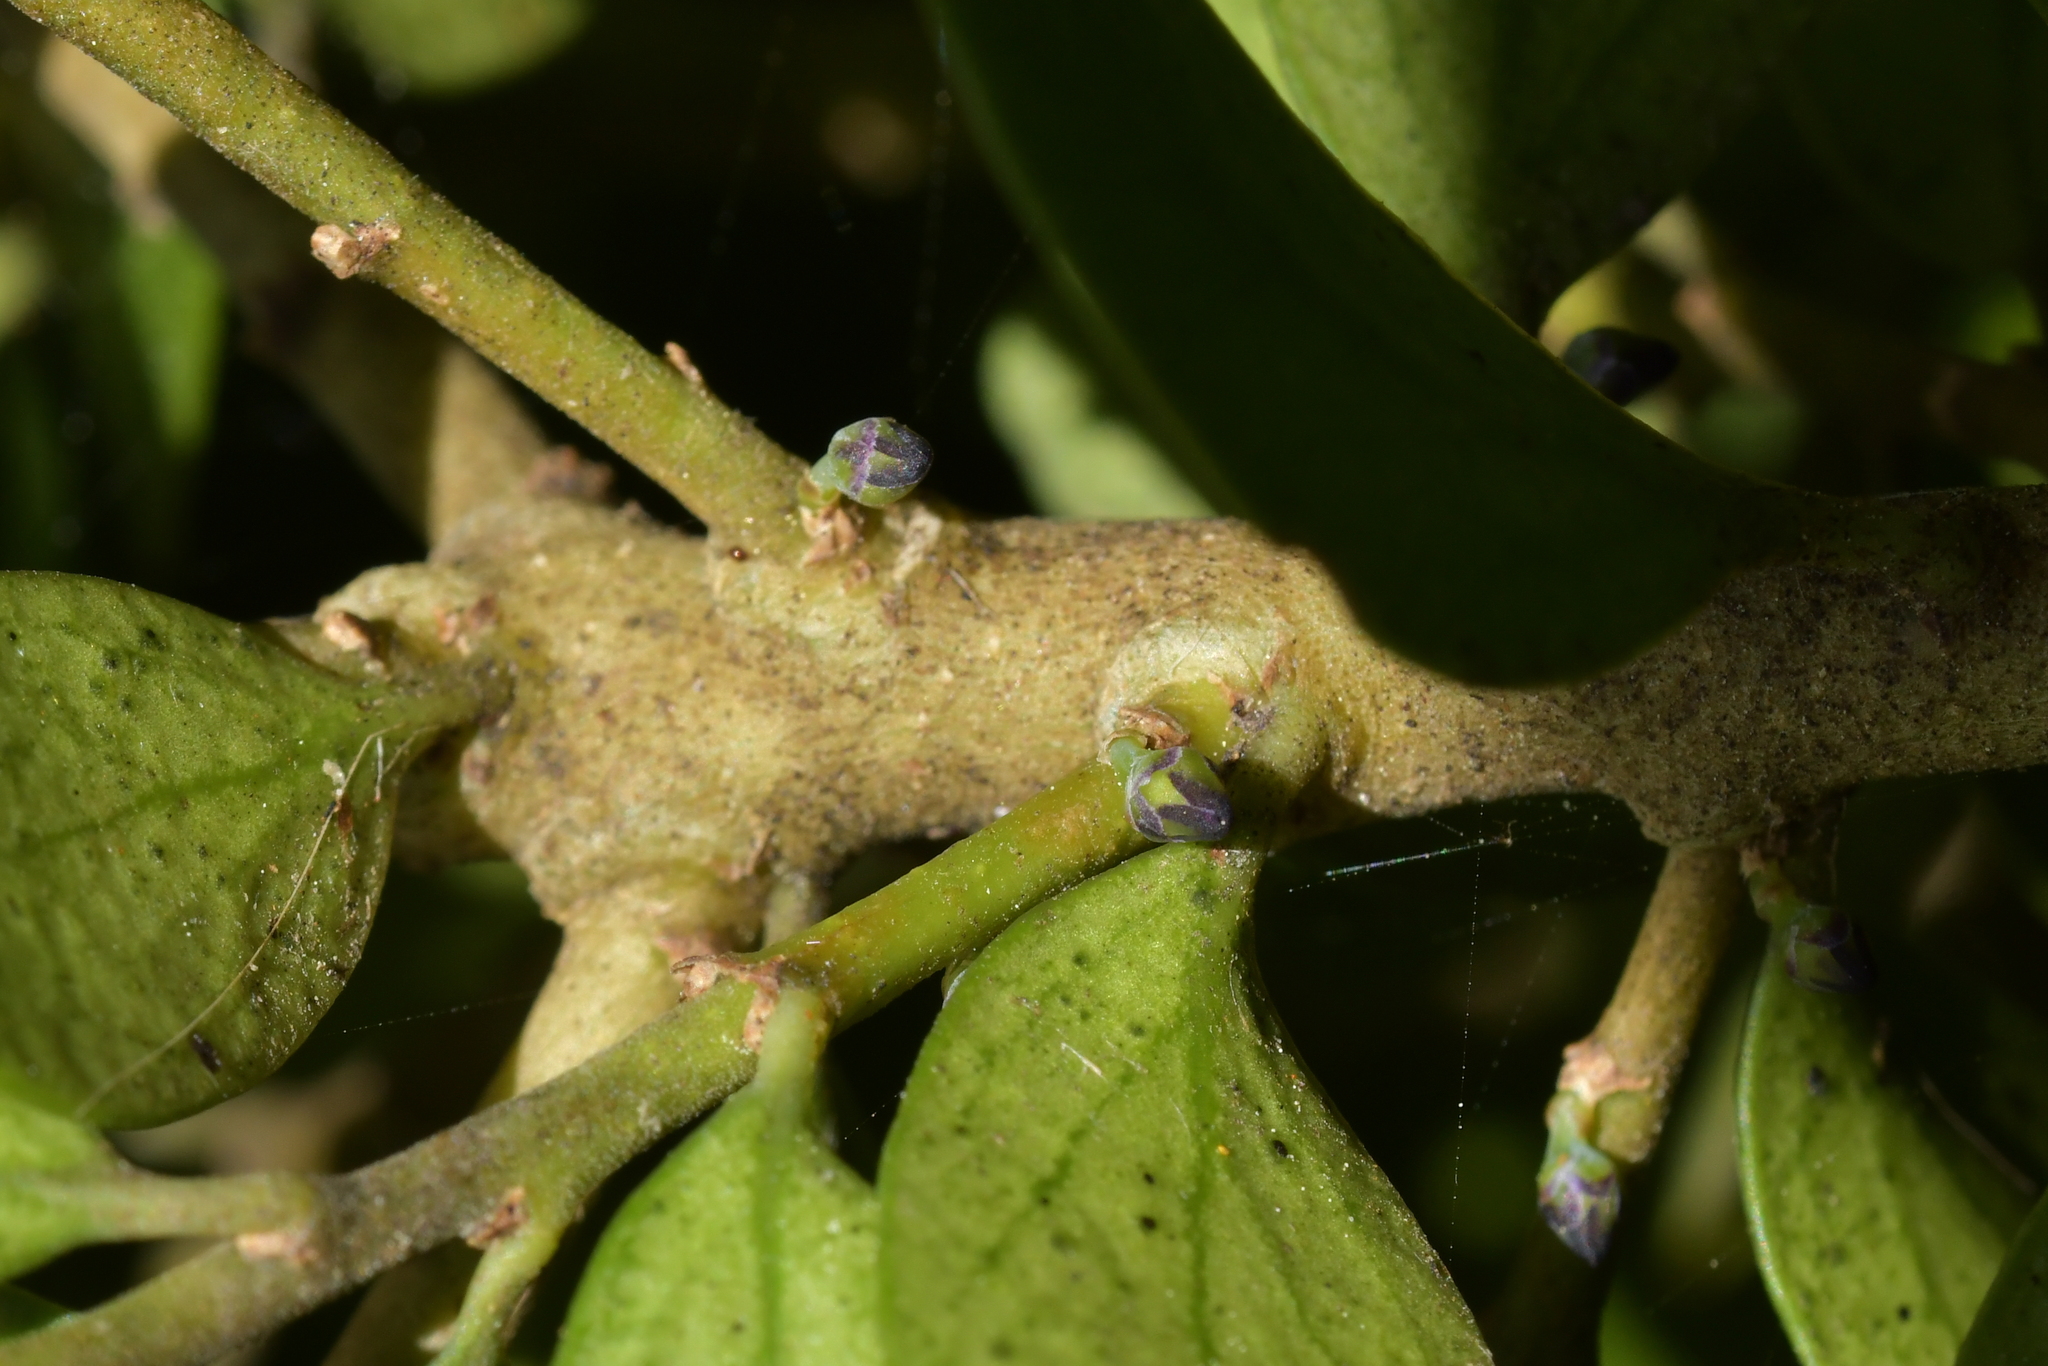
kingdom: Plantae
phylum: Tracheophyta
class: Magnoliopsida
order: Malpighiales
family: Violaceae
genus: Melicytus
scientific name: Melicytus orarius
